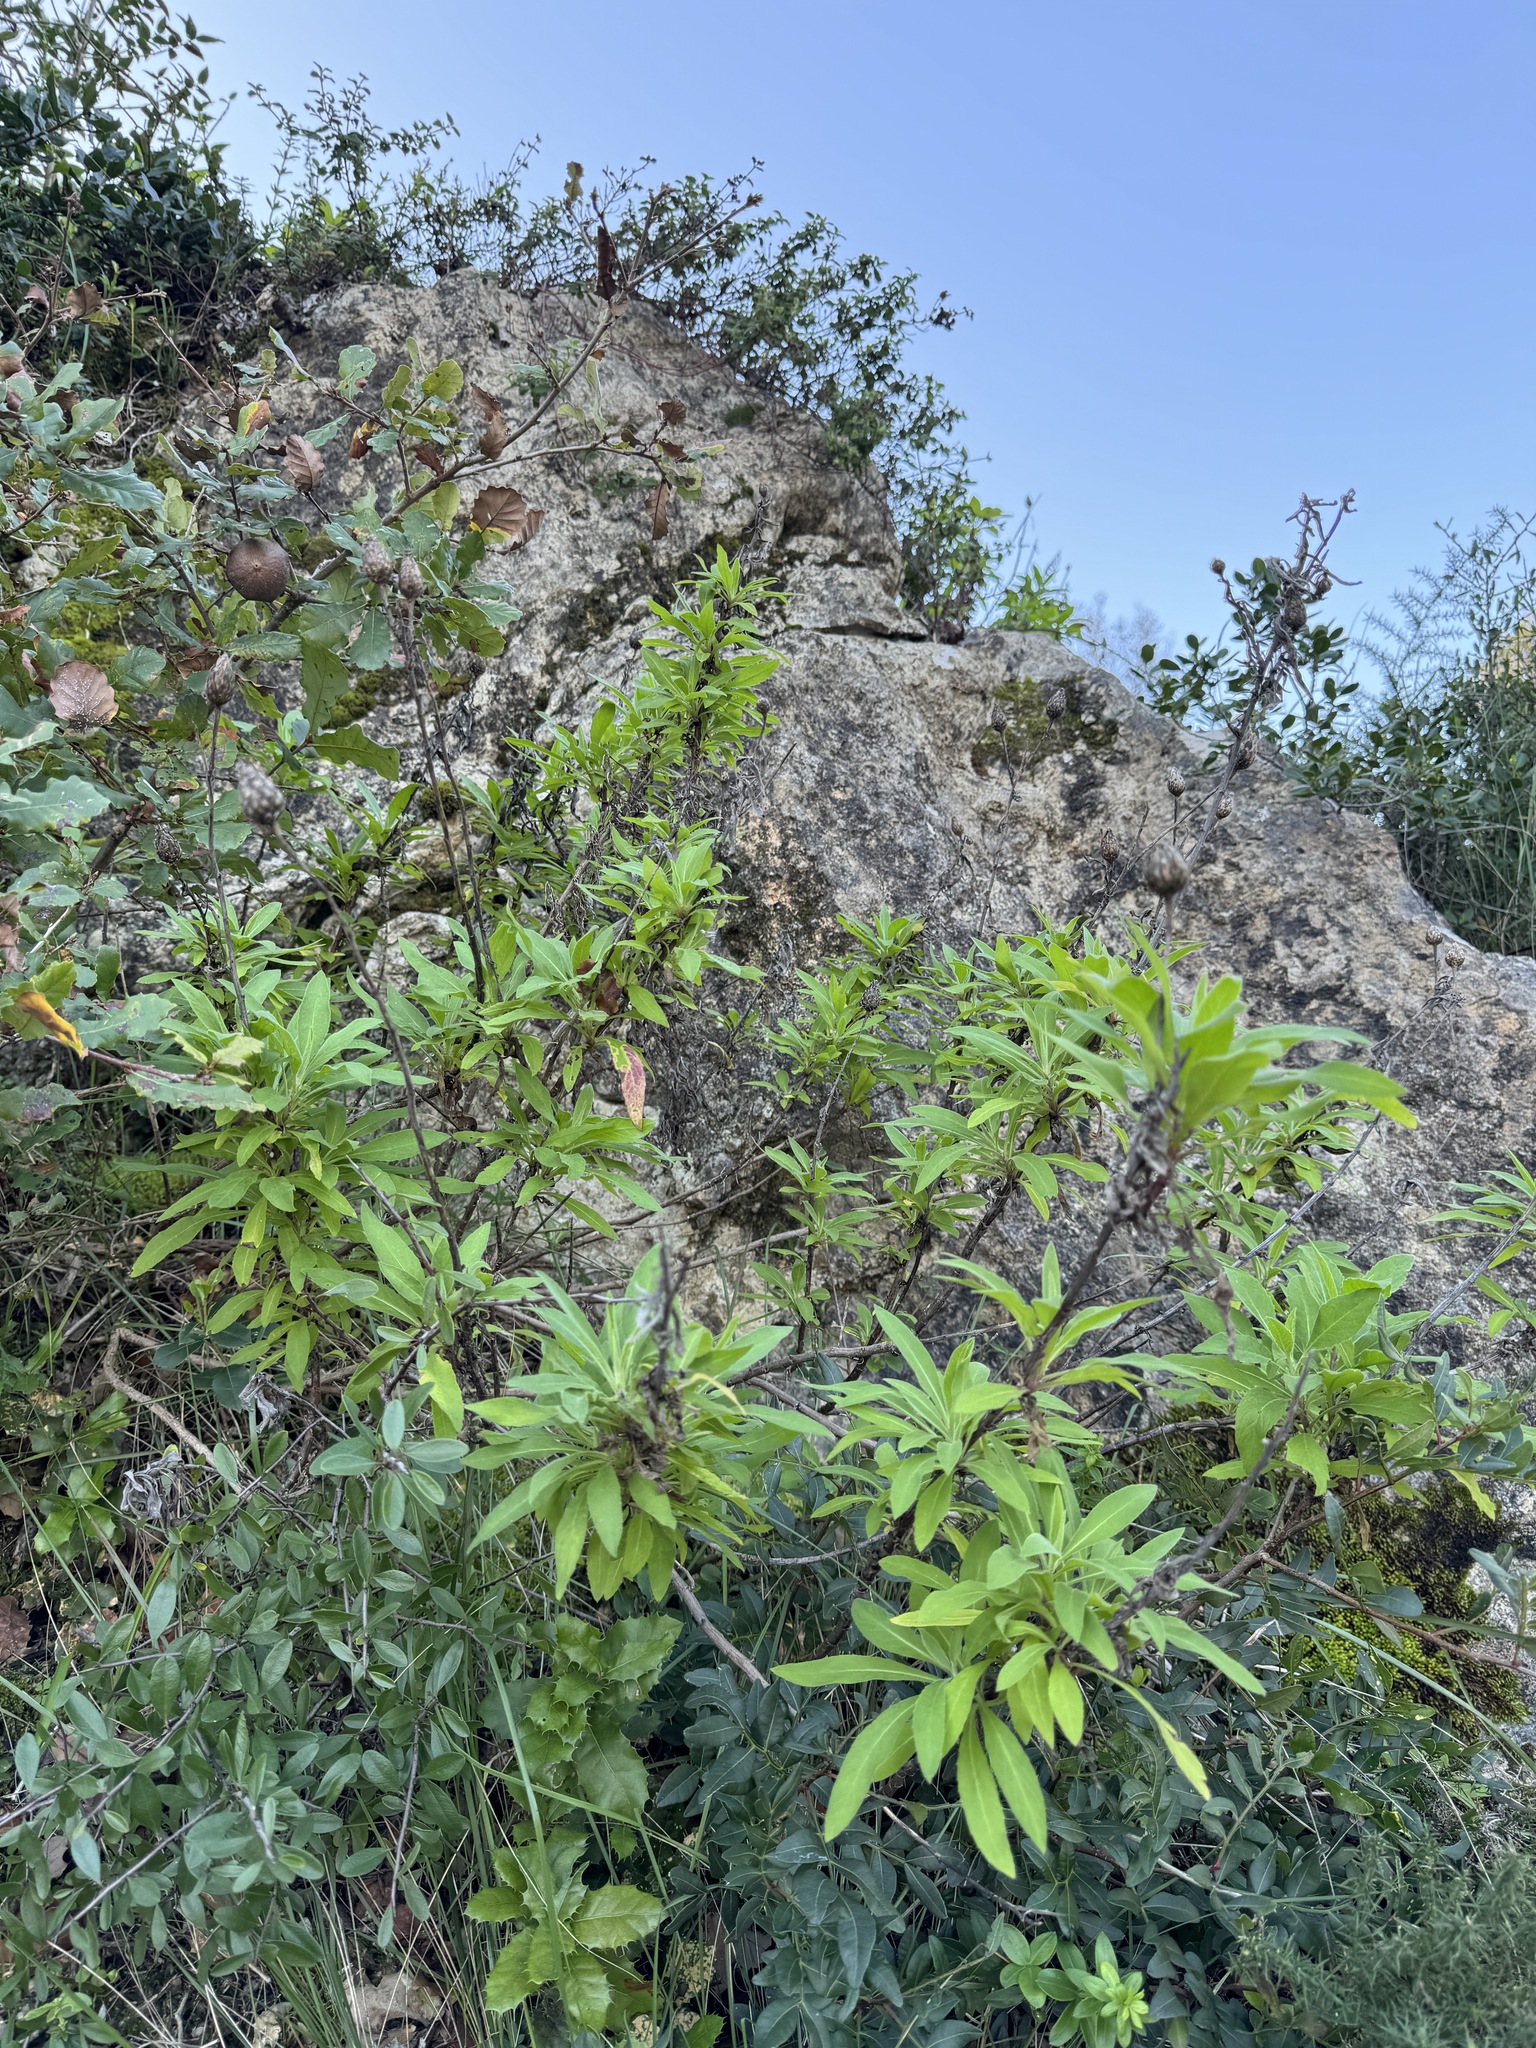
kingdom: Plantae
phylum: Tracheophyta
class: Magnoliopsida
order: Asterales
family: Asteraceae
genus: Cheirolophus
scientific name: Cheirolophus sempervirens
